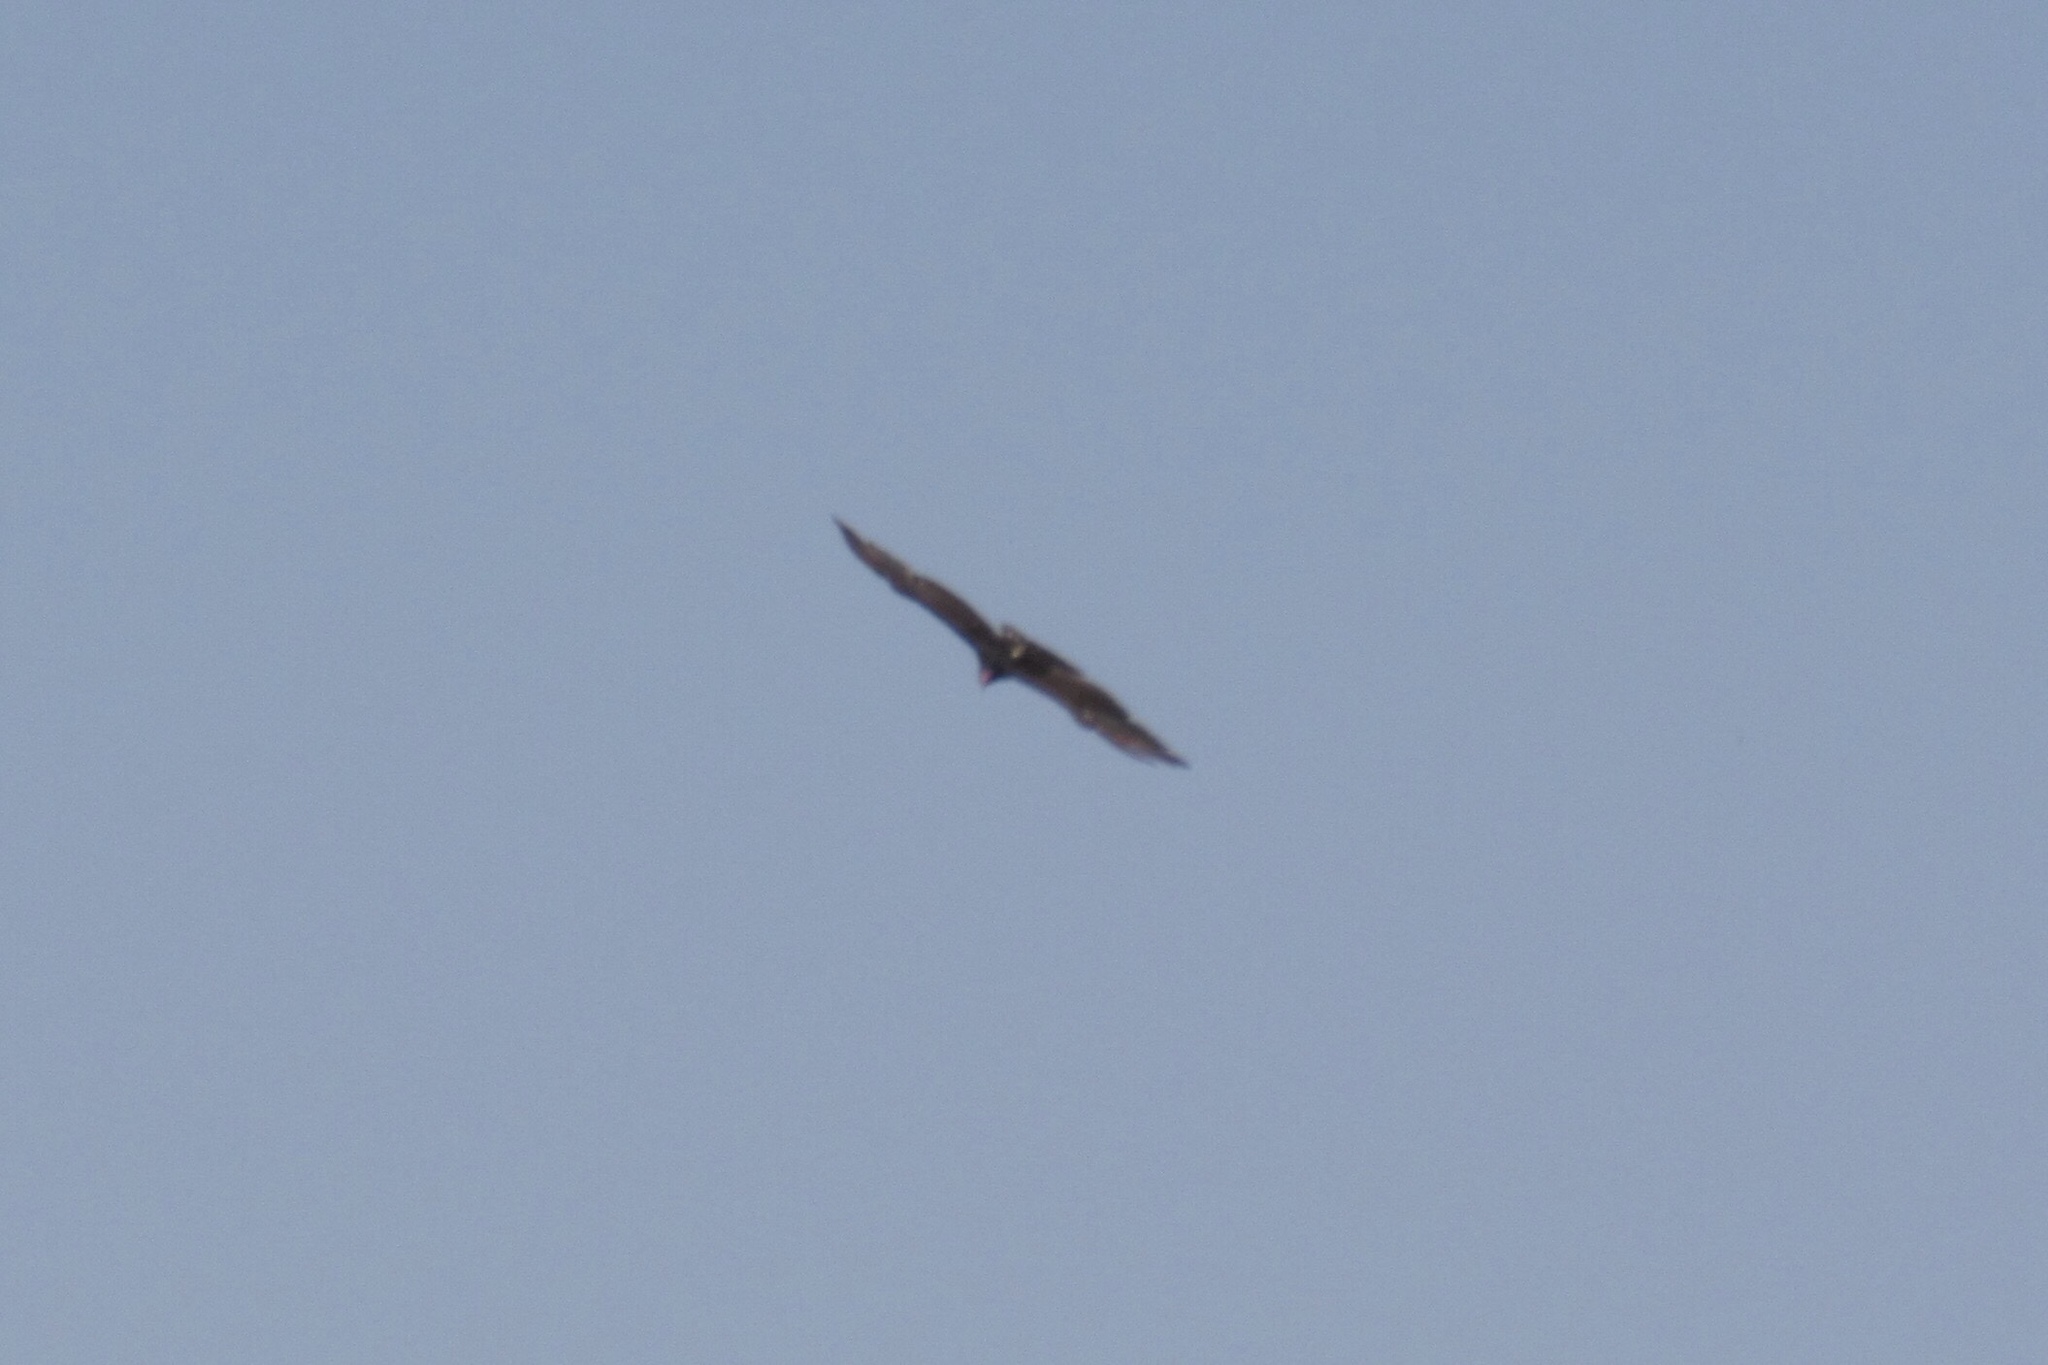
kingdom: Animalia
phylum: Chordata
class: Aves
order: Accipitriformes
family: Cathartidae
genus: Cathartes
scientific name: Cathartes aura
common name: Turkey vulture
